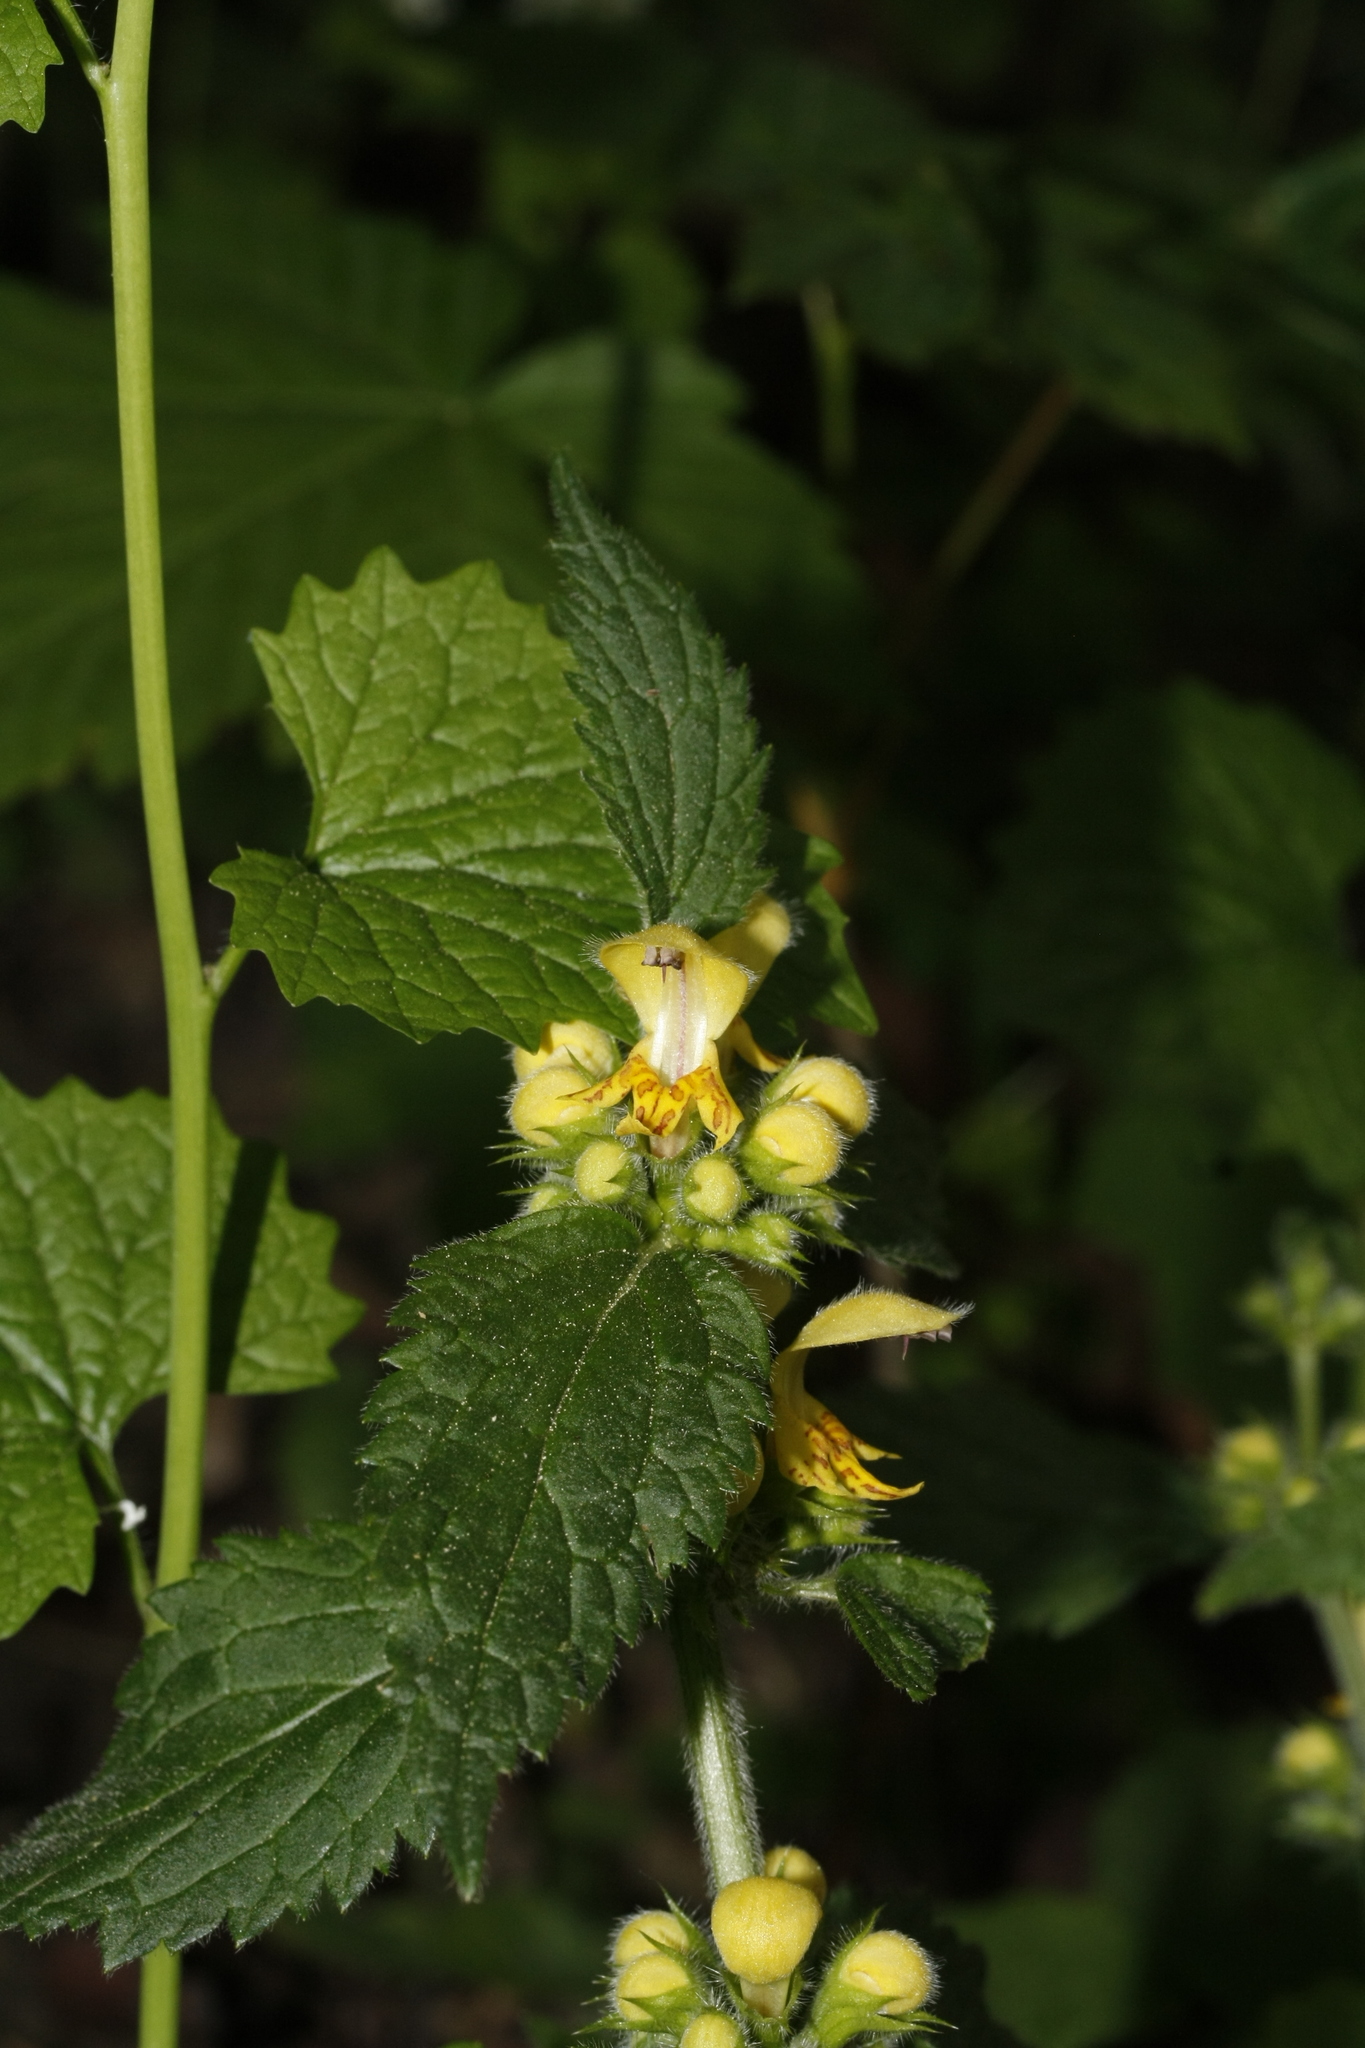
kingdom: Plantae
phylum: Tracheophyta
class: Magnoliopsida
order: Lamiales
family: Lamiaceae
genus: Lamium
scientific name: Lamium galeobdolon
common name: Yellow archangel
